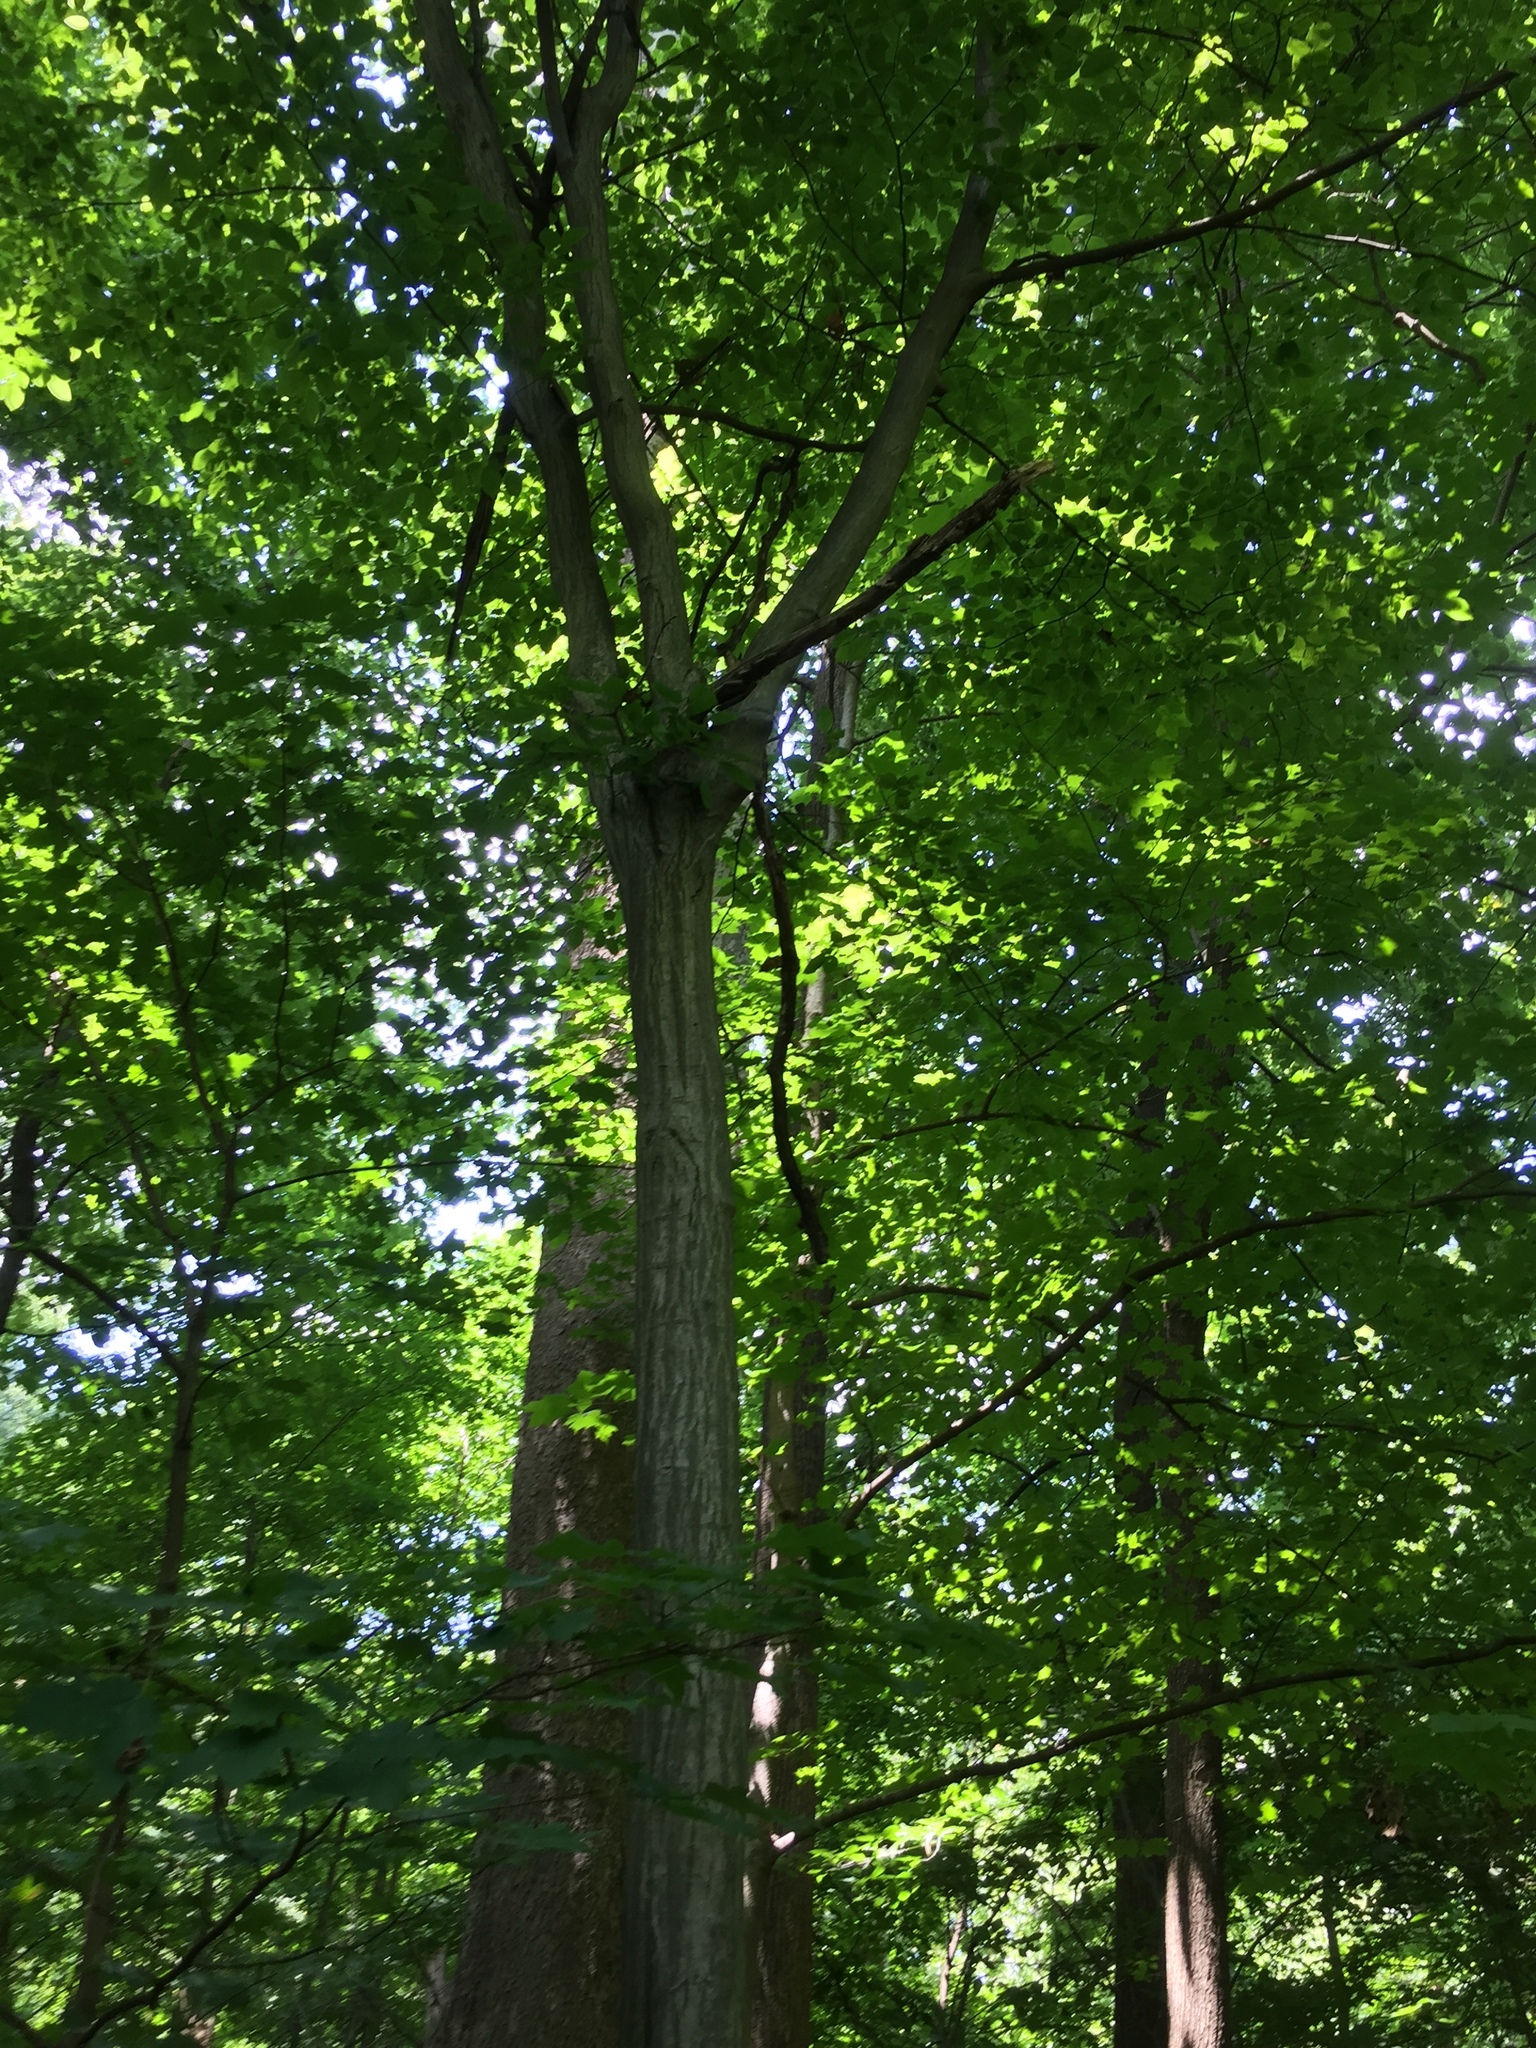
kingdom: Plantae
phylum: Tracheophyta
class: Magnoliopsida
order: Fagales
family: Betulaceae
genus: Carpinus
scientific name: Carpinus caroliniana
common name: American hornbeam
